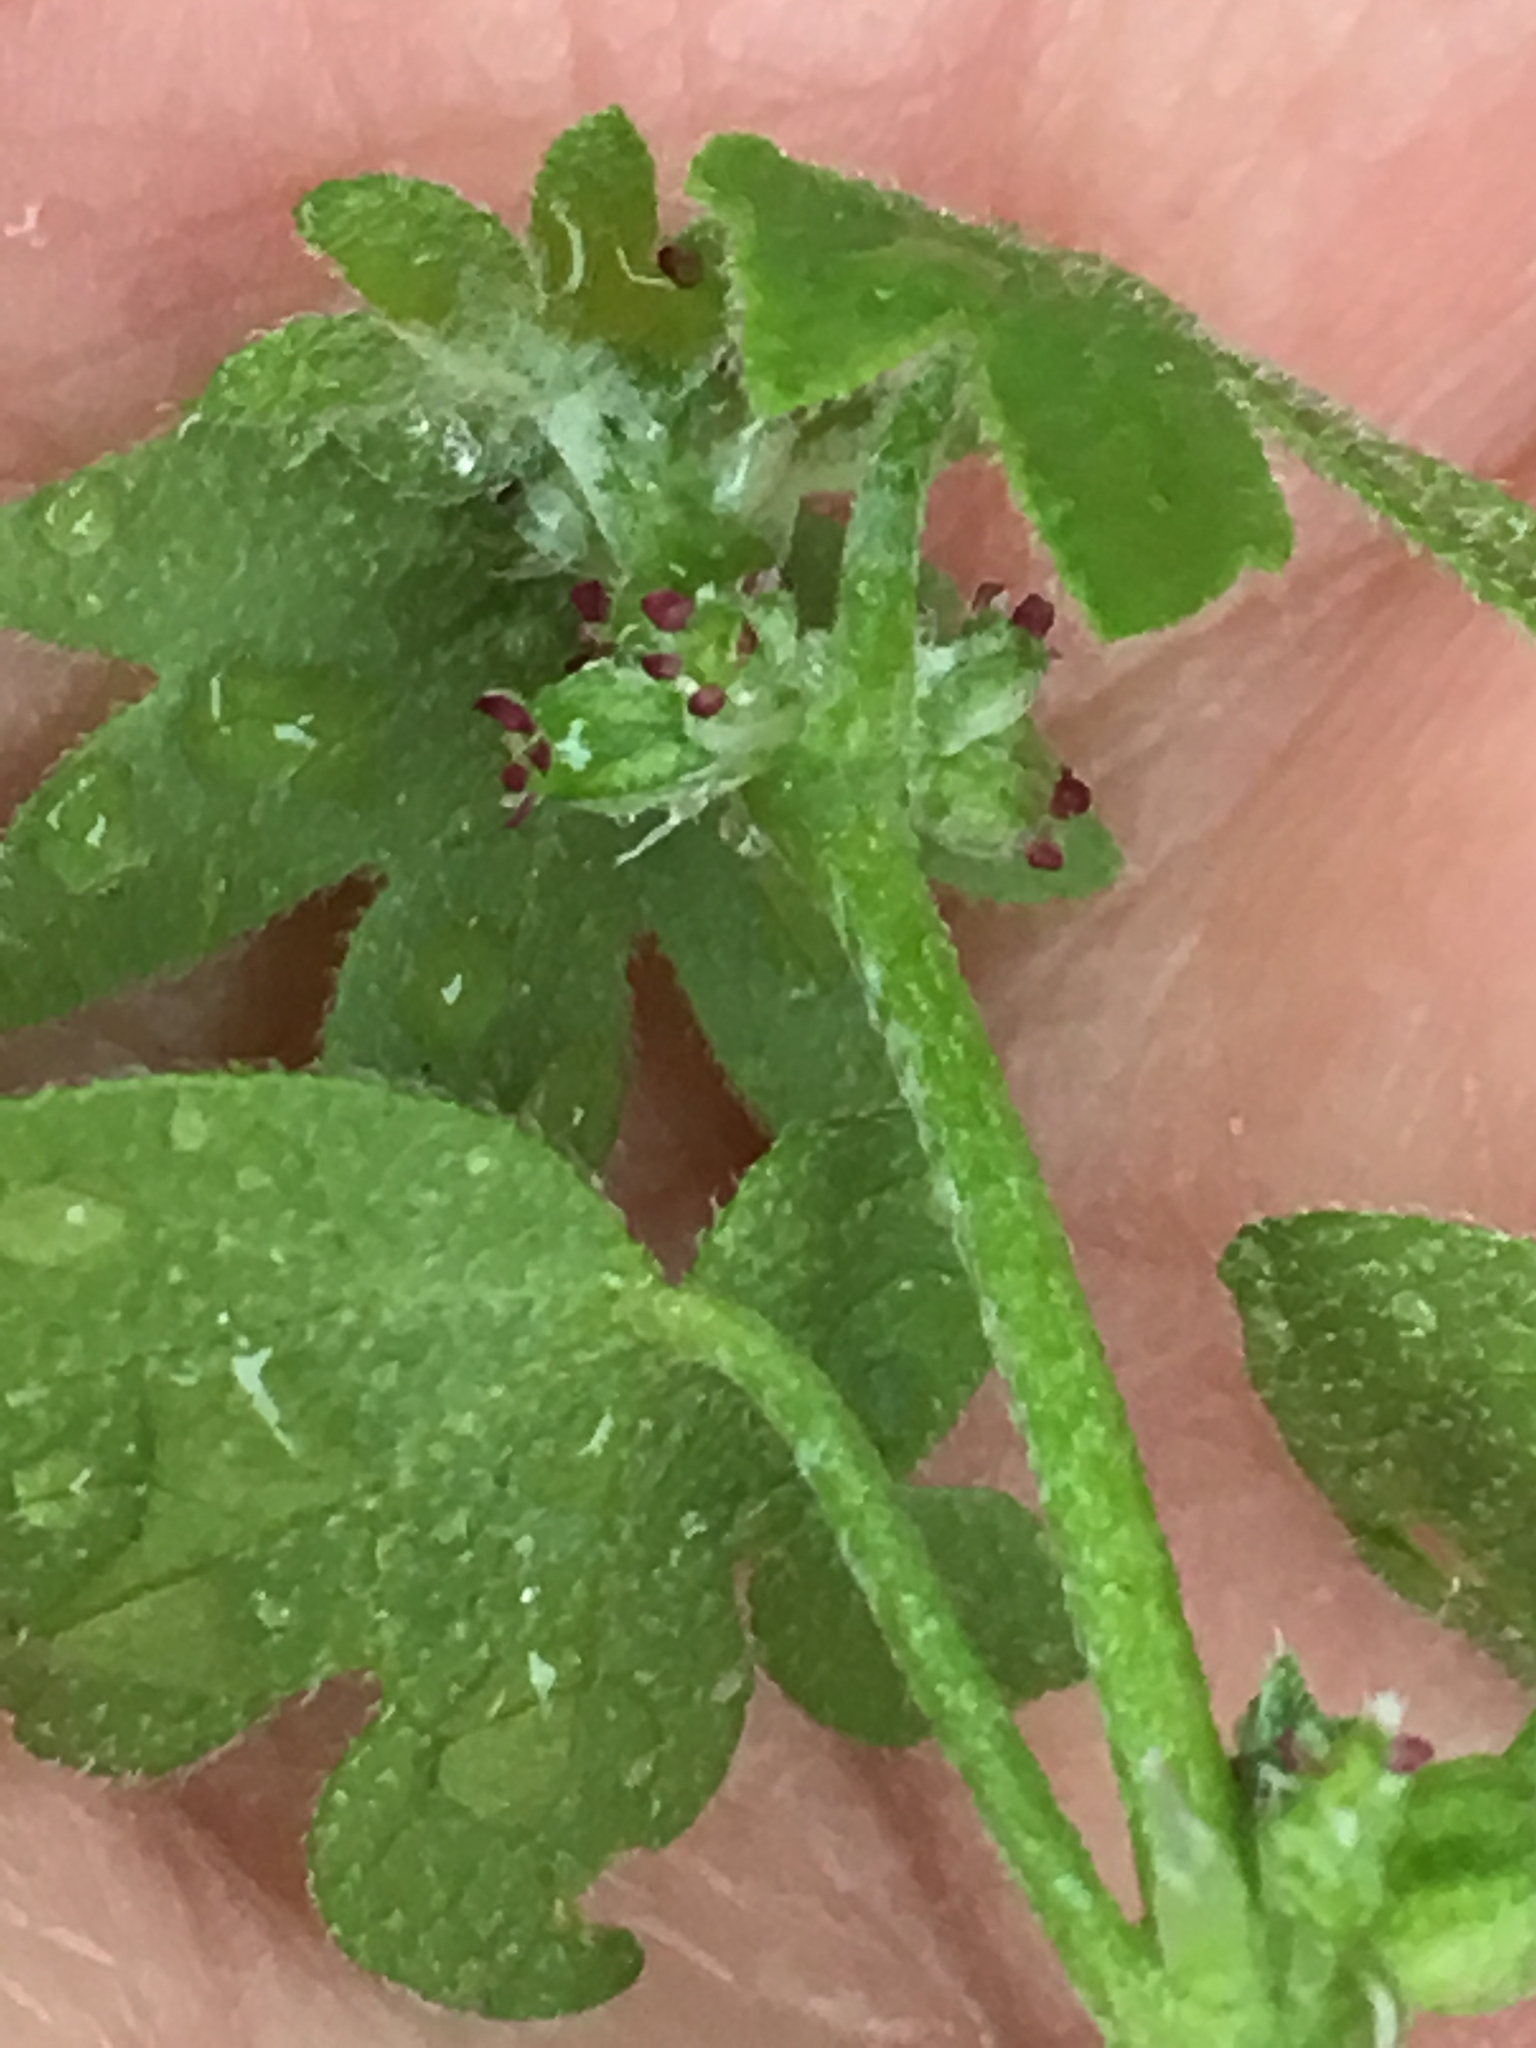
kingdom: Plantae
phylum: Tracheophyta
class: Magnoliopsida
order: Apiales
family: Apiaceae
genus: Bowlesia
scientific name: Bowlesia incana
